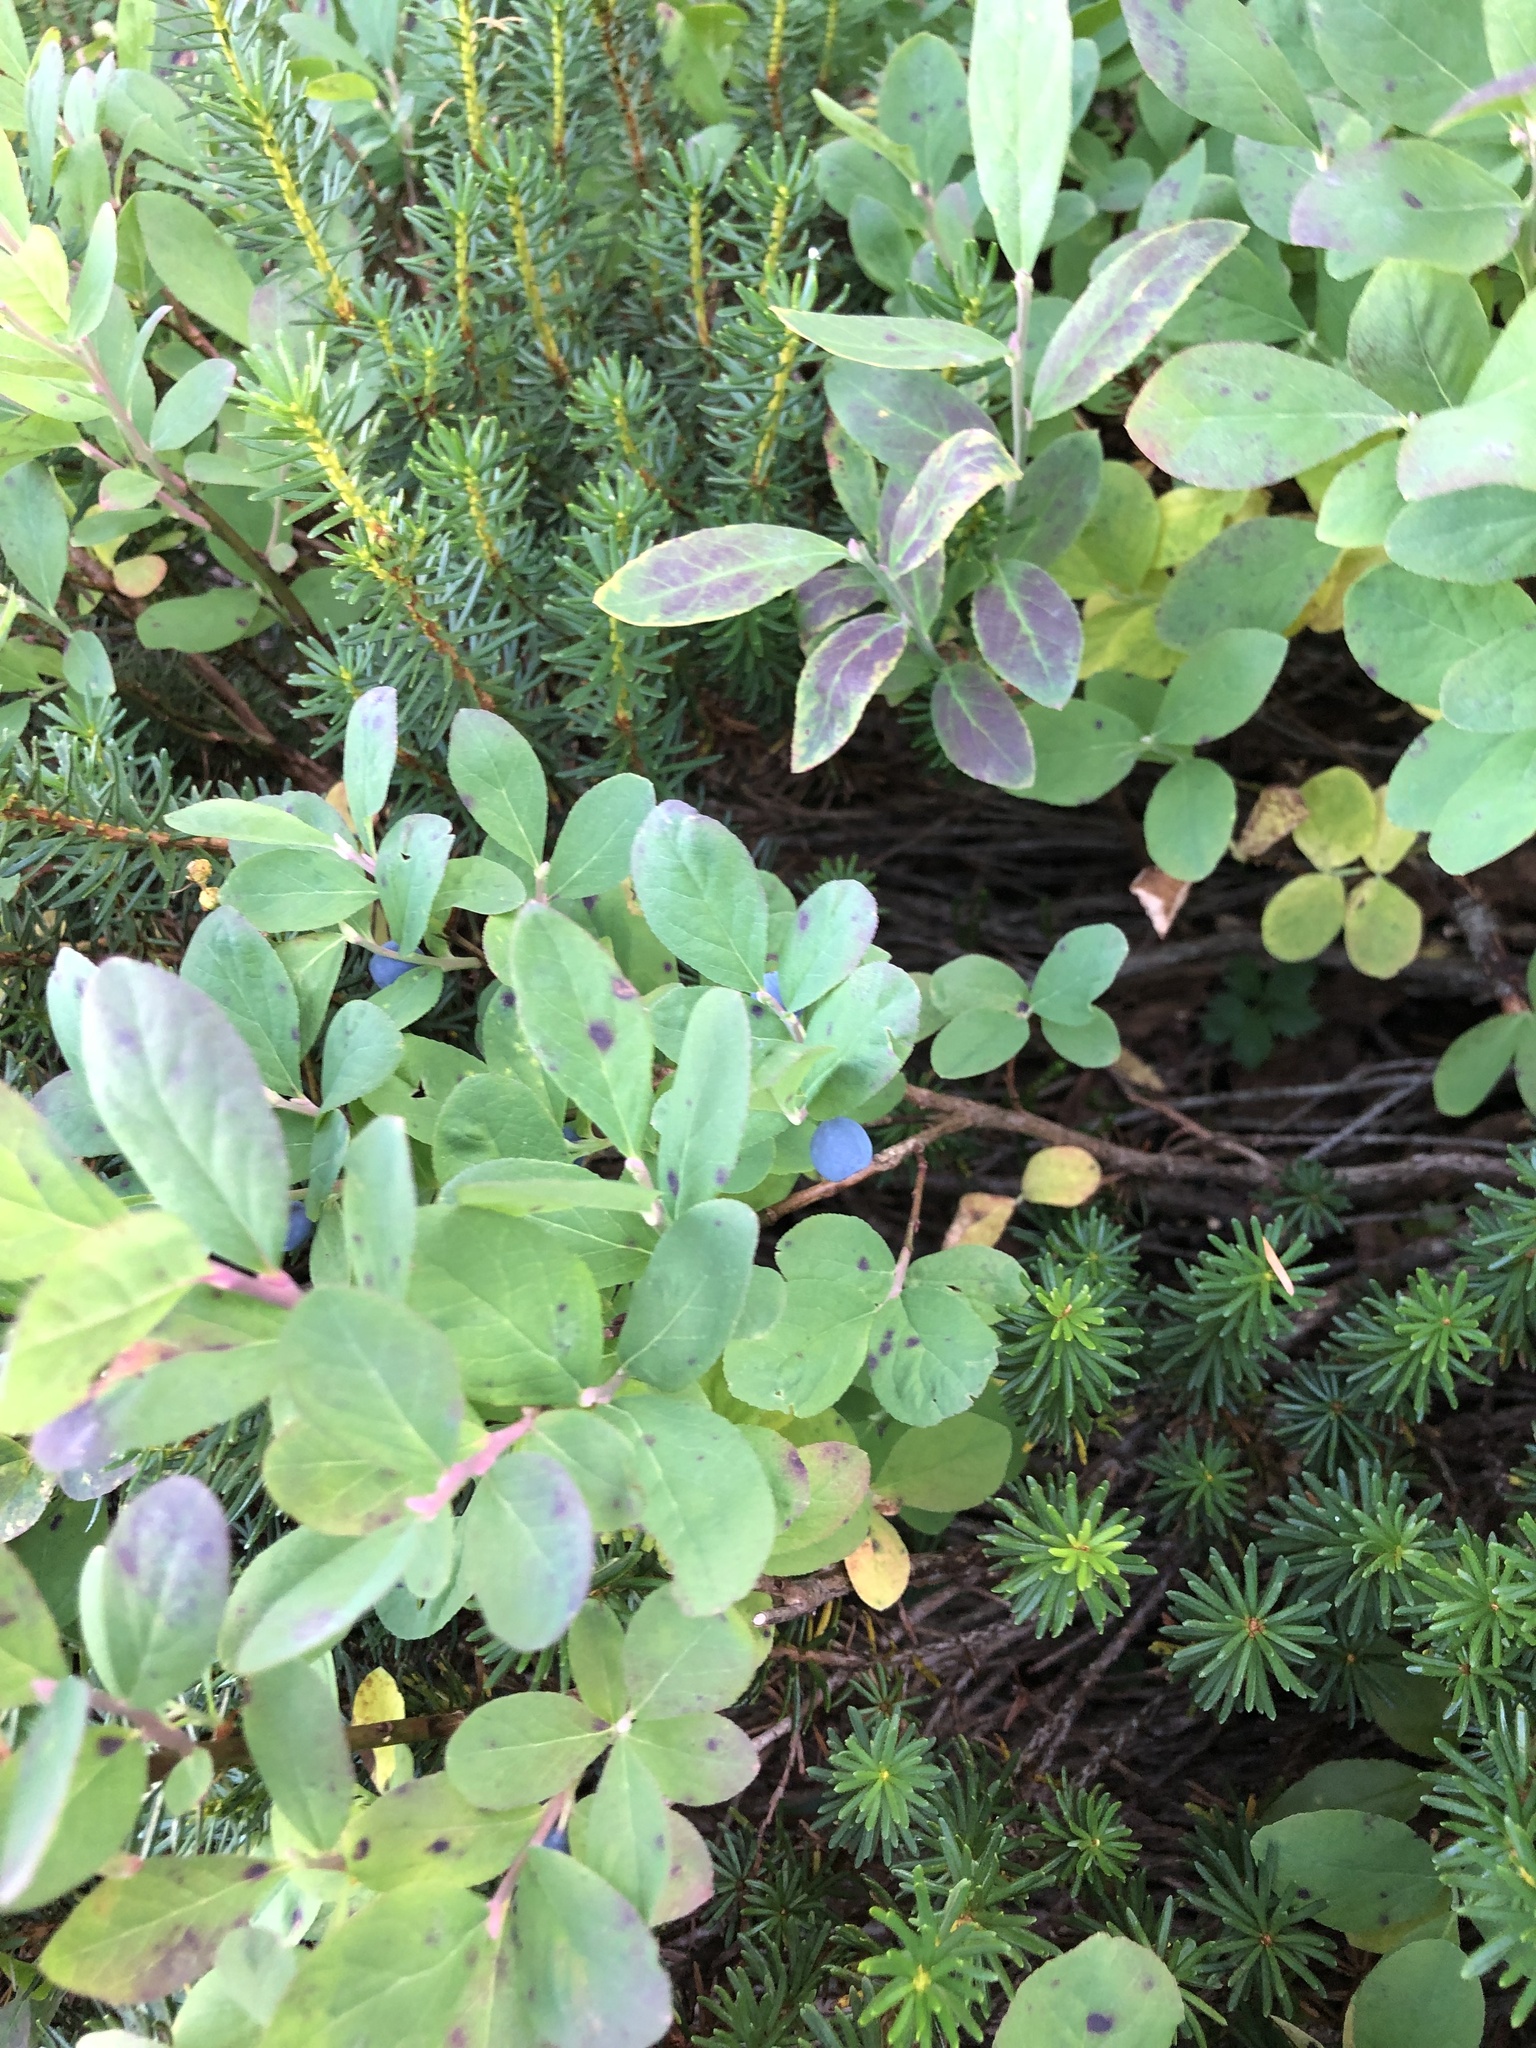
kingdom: Plantae
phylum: Tracheophyta
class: Magnoliopsida
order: Ericales
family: Ericaceae
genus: Vaccinium
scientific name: Vaccinium deliciosum
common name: Cascade bilberry
